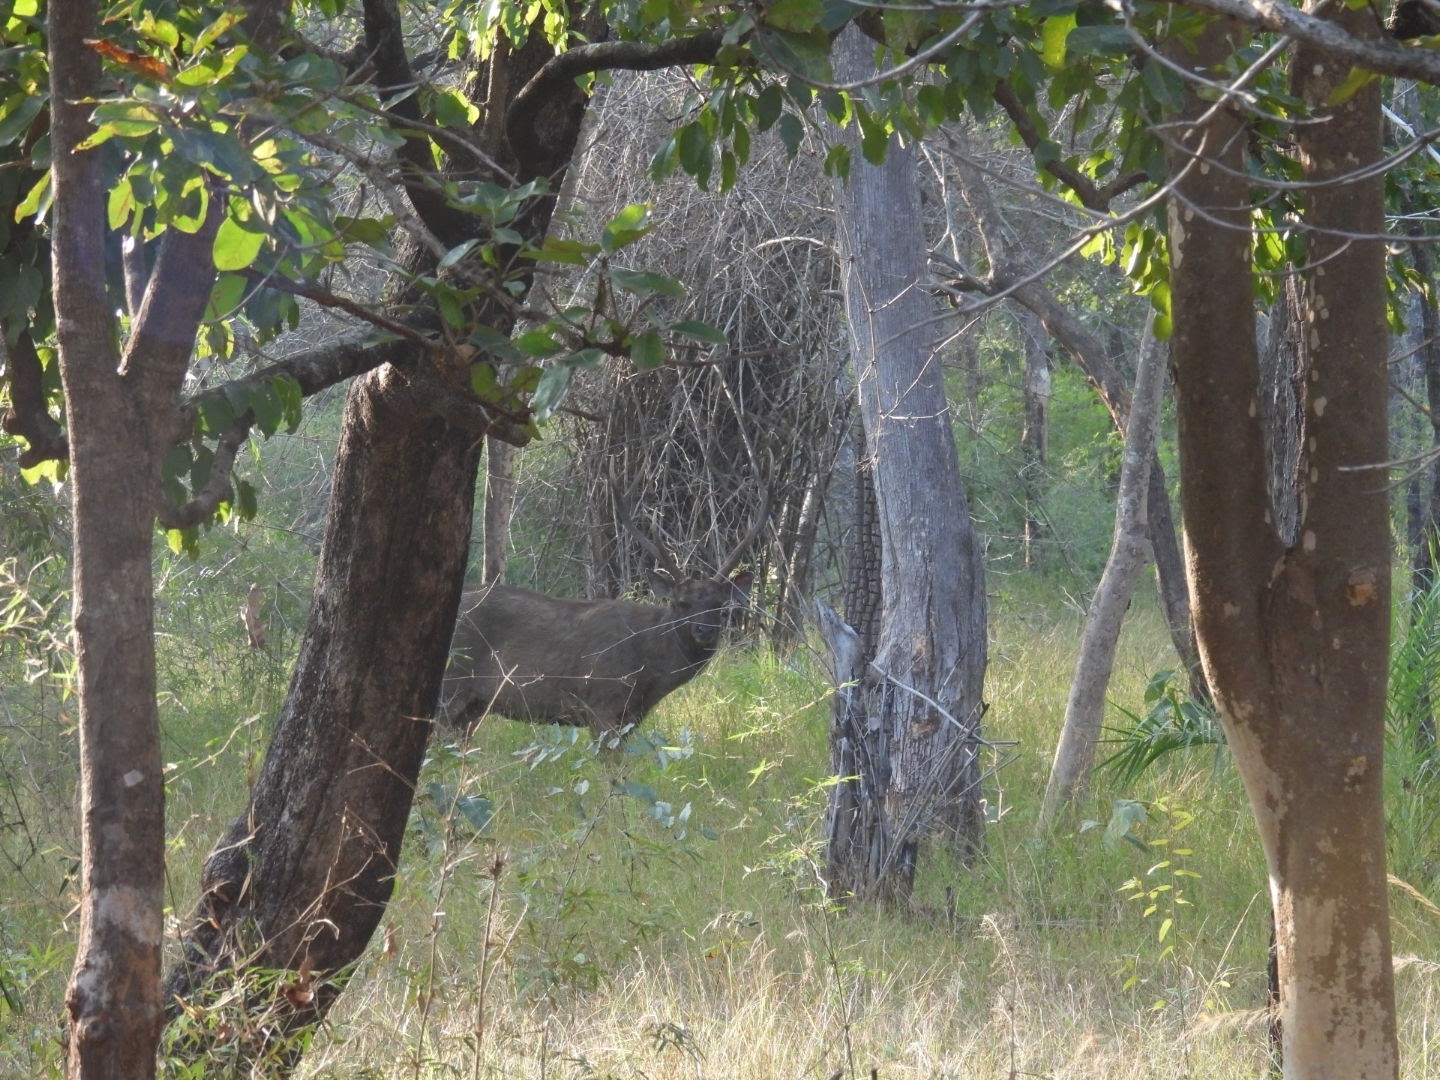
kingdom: Animalia
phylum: Chordata
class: Mammalia
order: Artiodactyla
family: Cervidae
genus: Rusa
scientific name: Rusa unicolor
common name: Sambar
